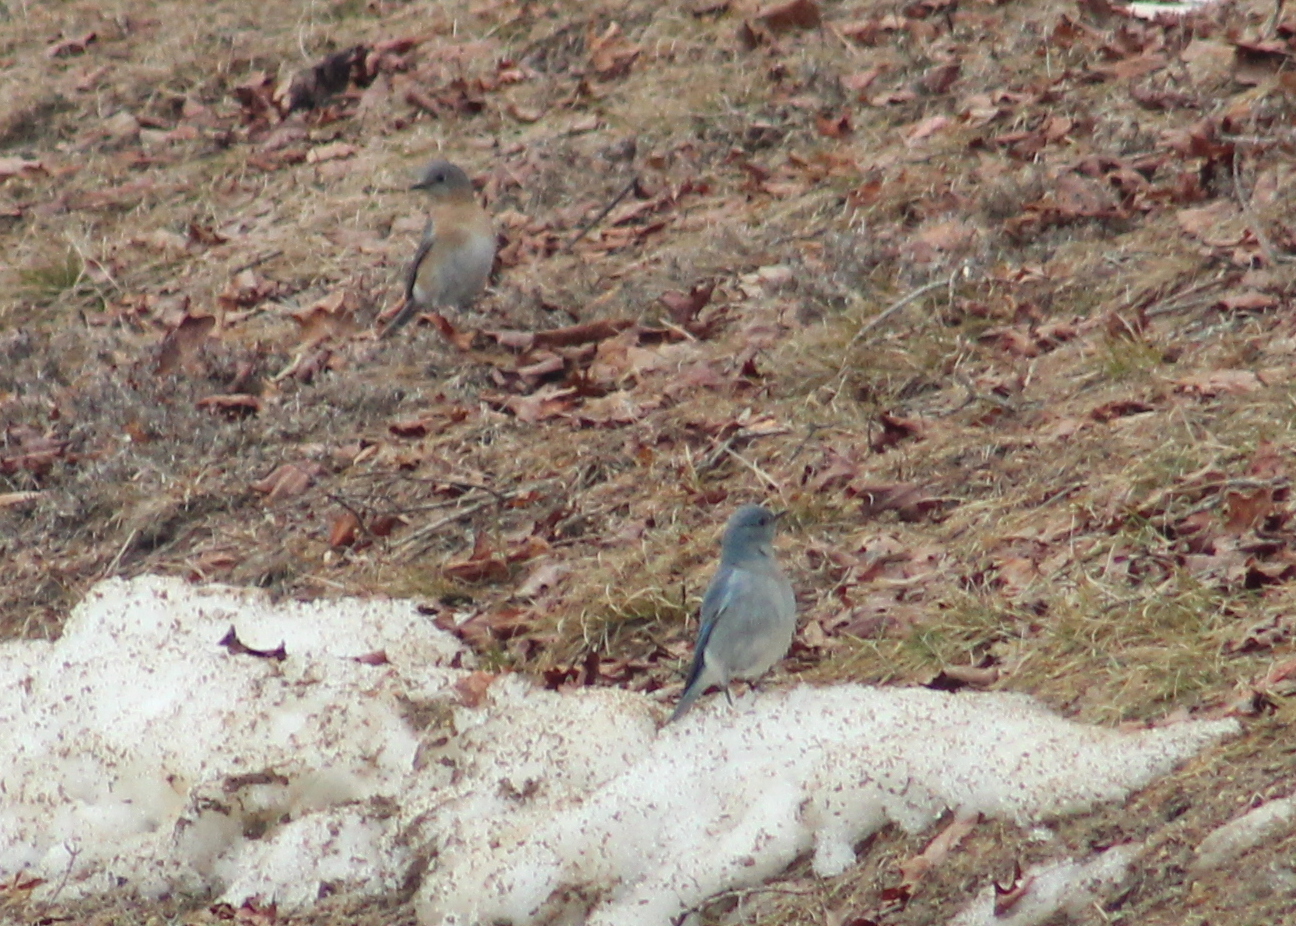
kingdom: Animalia
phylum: Chordata
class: Aves
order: Passeriformes
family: Turdidae
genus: Sialia
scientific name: Sialia sialis
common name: Eastern bluebird
